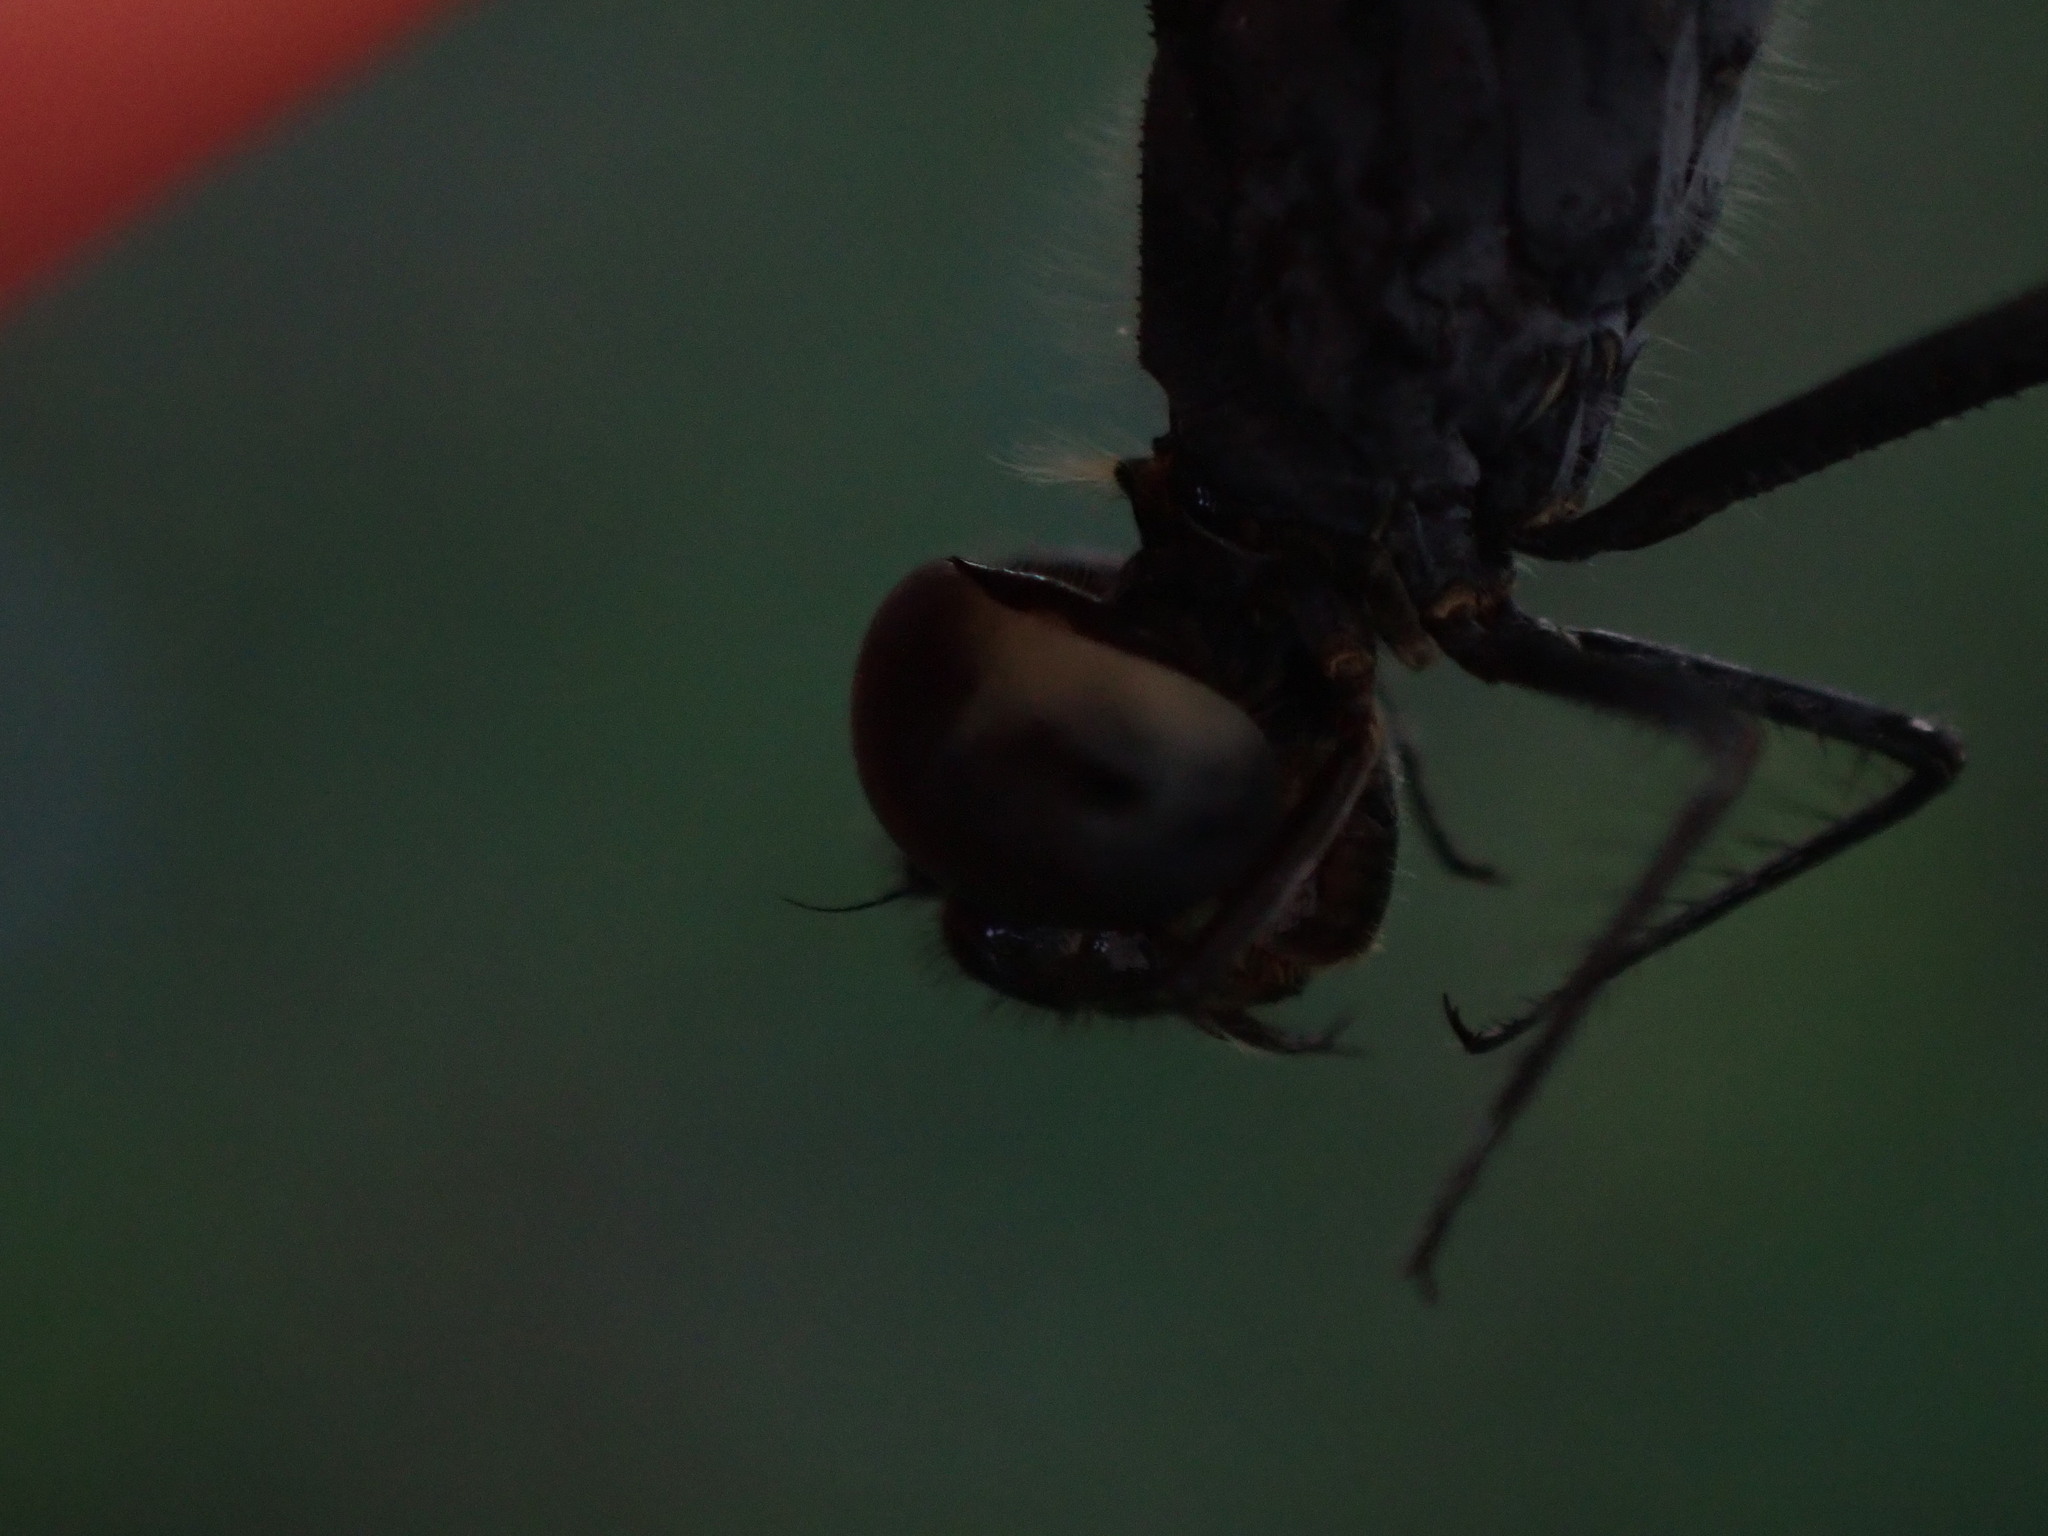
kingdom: Animalia
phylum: Arthropoda
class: Insecta
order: Odonata
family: Libellulidae
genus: Diplacodes
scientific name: Diplacodes nebulosa
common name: Black-tipped percher
